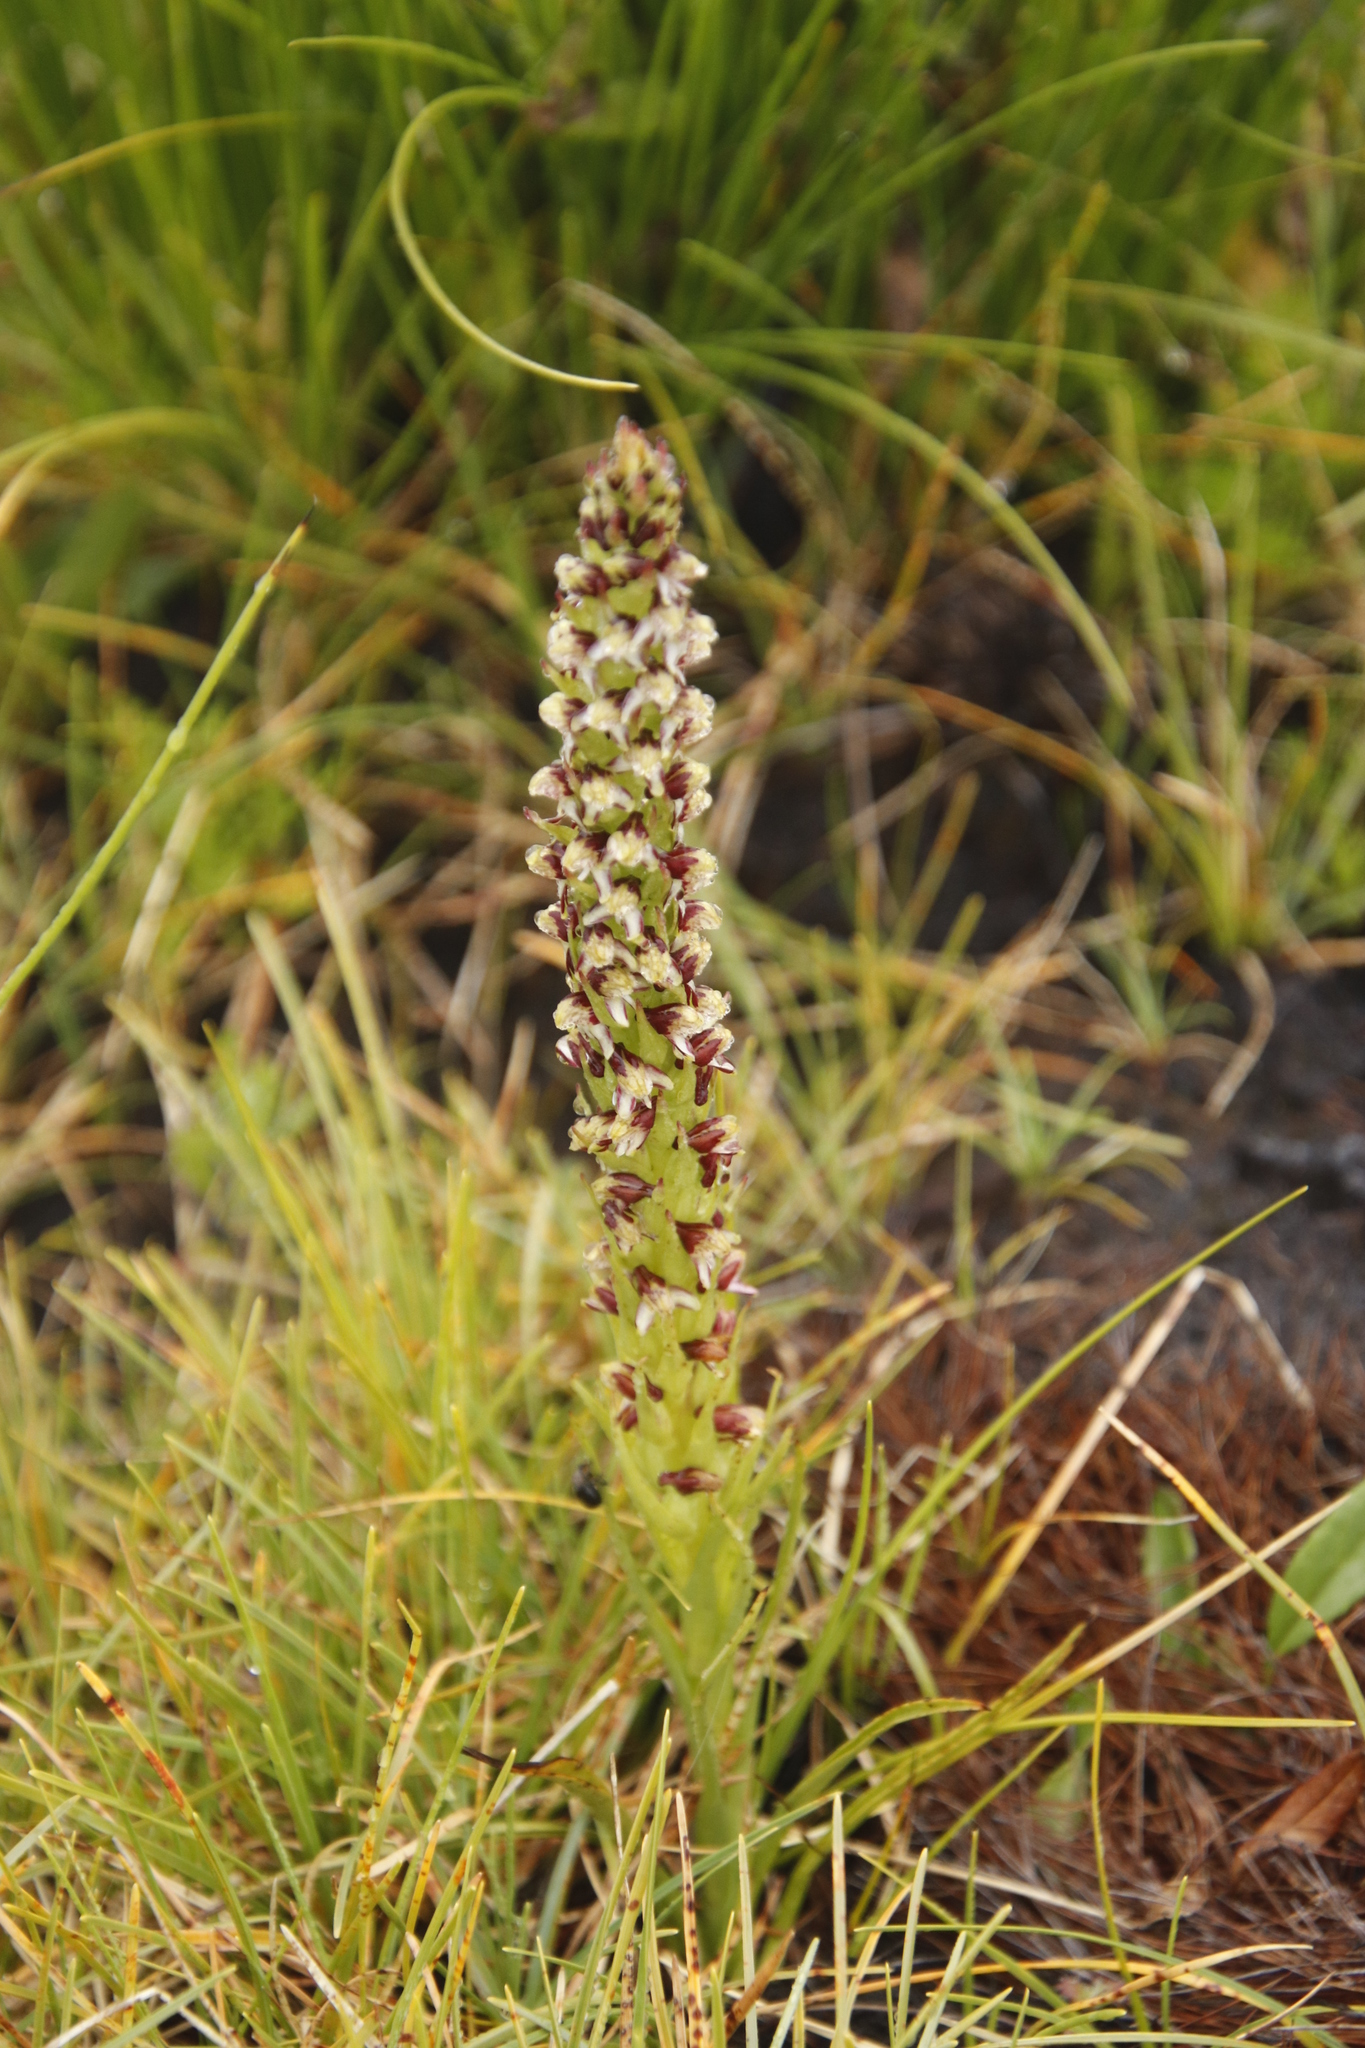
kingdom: Plantae
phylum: Tracheophyta
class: Liliopsida
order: Asparagales
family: Orchidaceae
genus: Disa
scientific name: Disa obtusa
